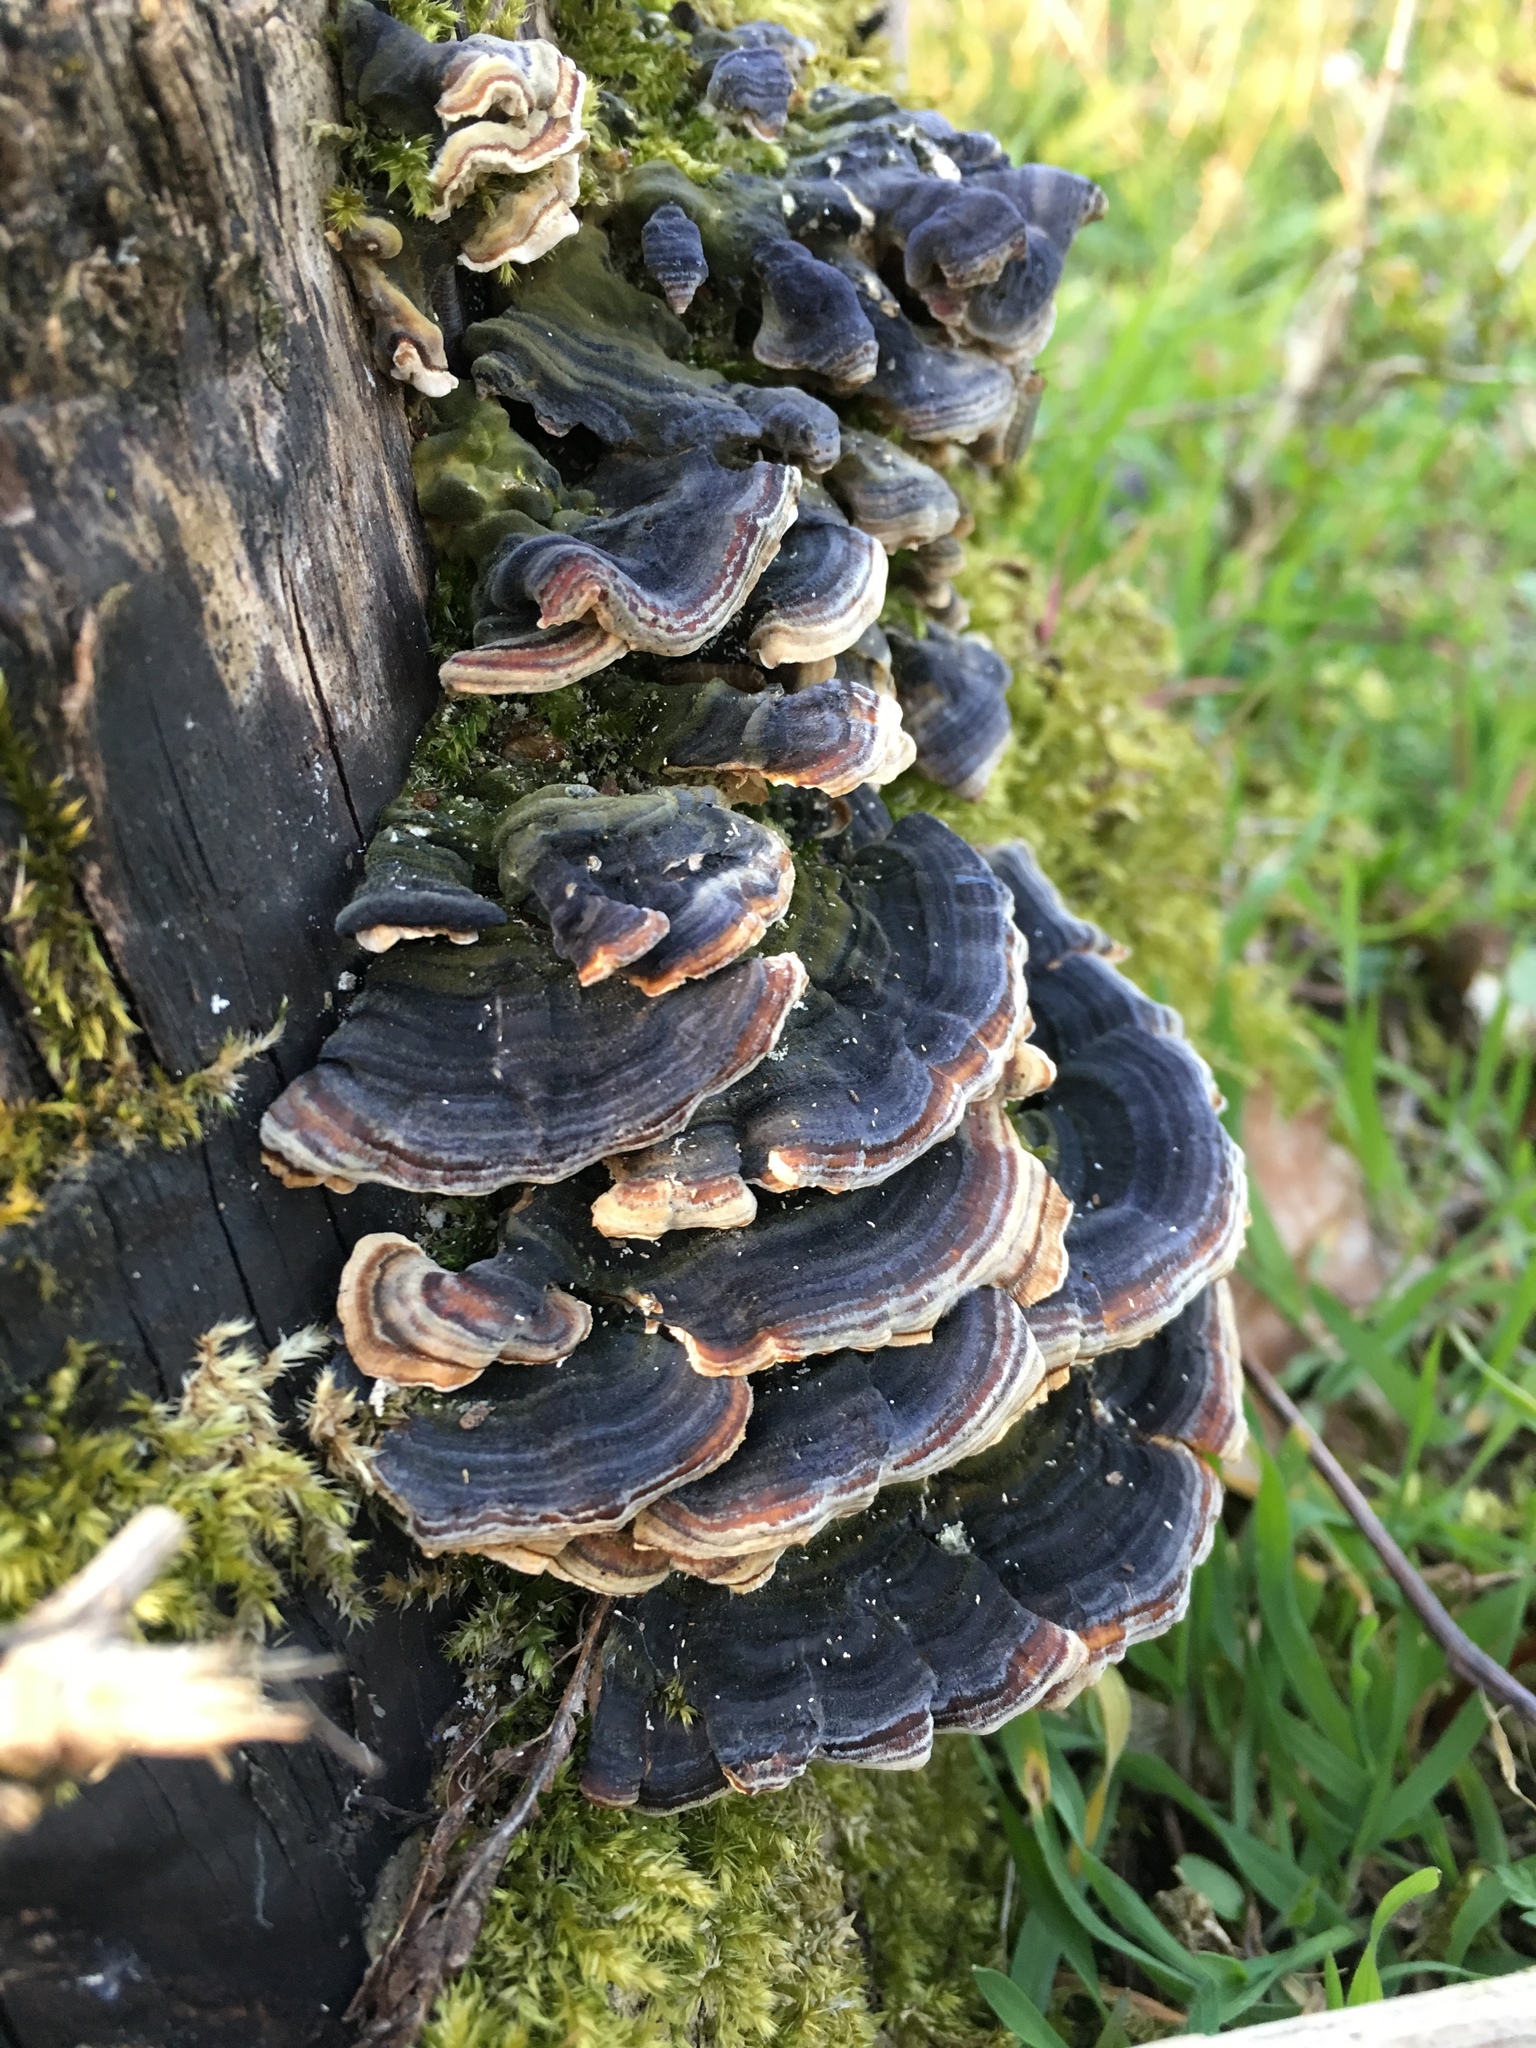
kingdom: Fungi
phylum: Basidiomycota
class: Agaricomycetes
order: Polyporales
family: Polyporaceae
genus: Trametes
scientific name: Trametes versicolor
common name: Turkeytail
